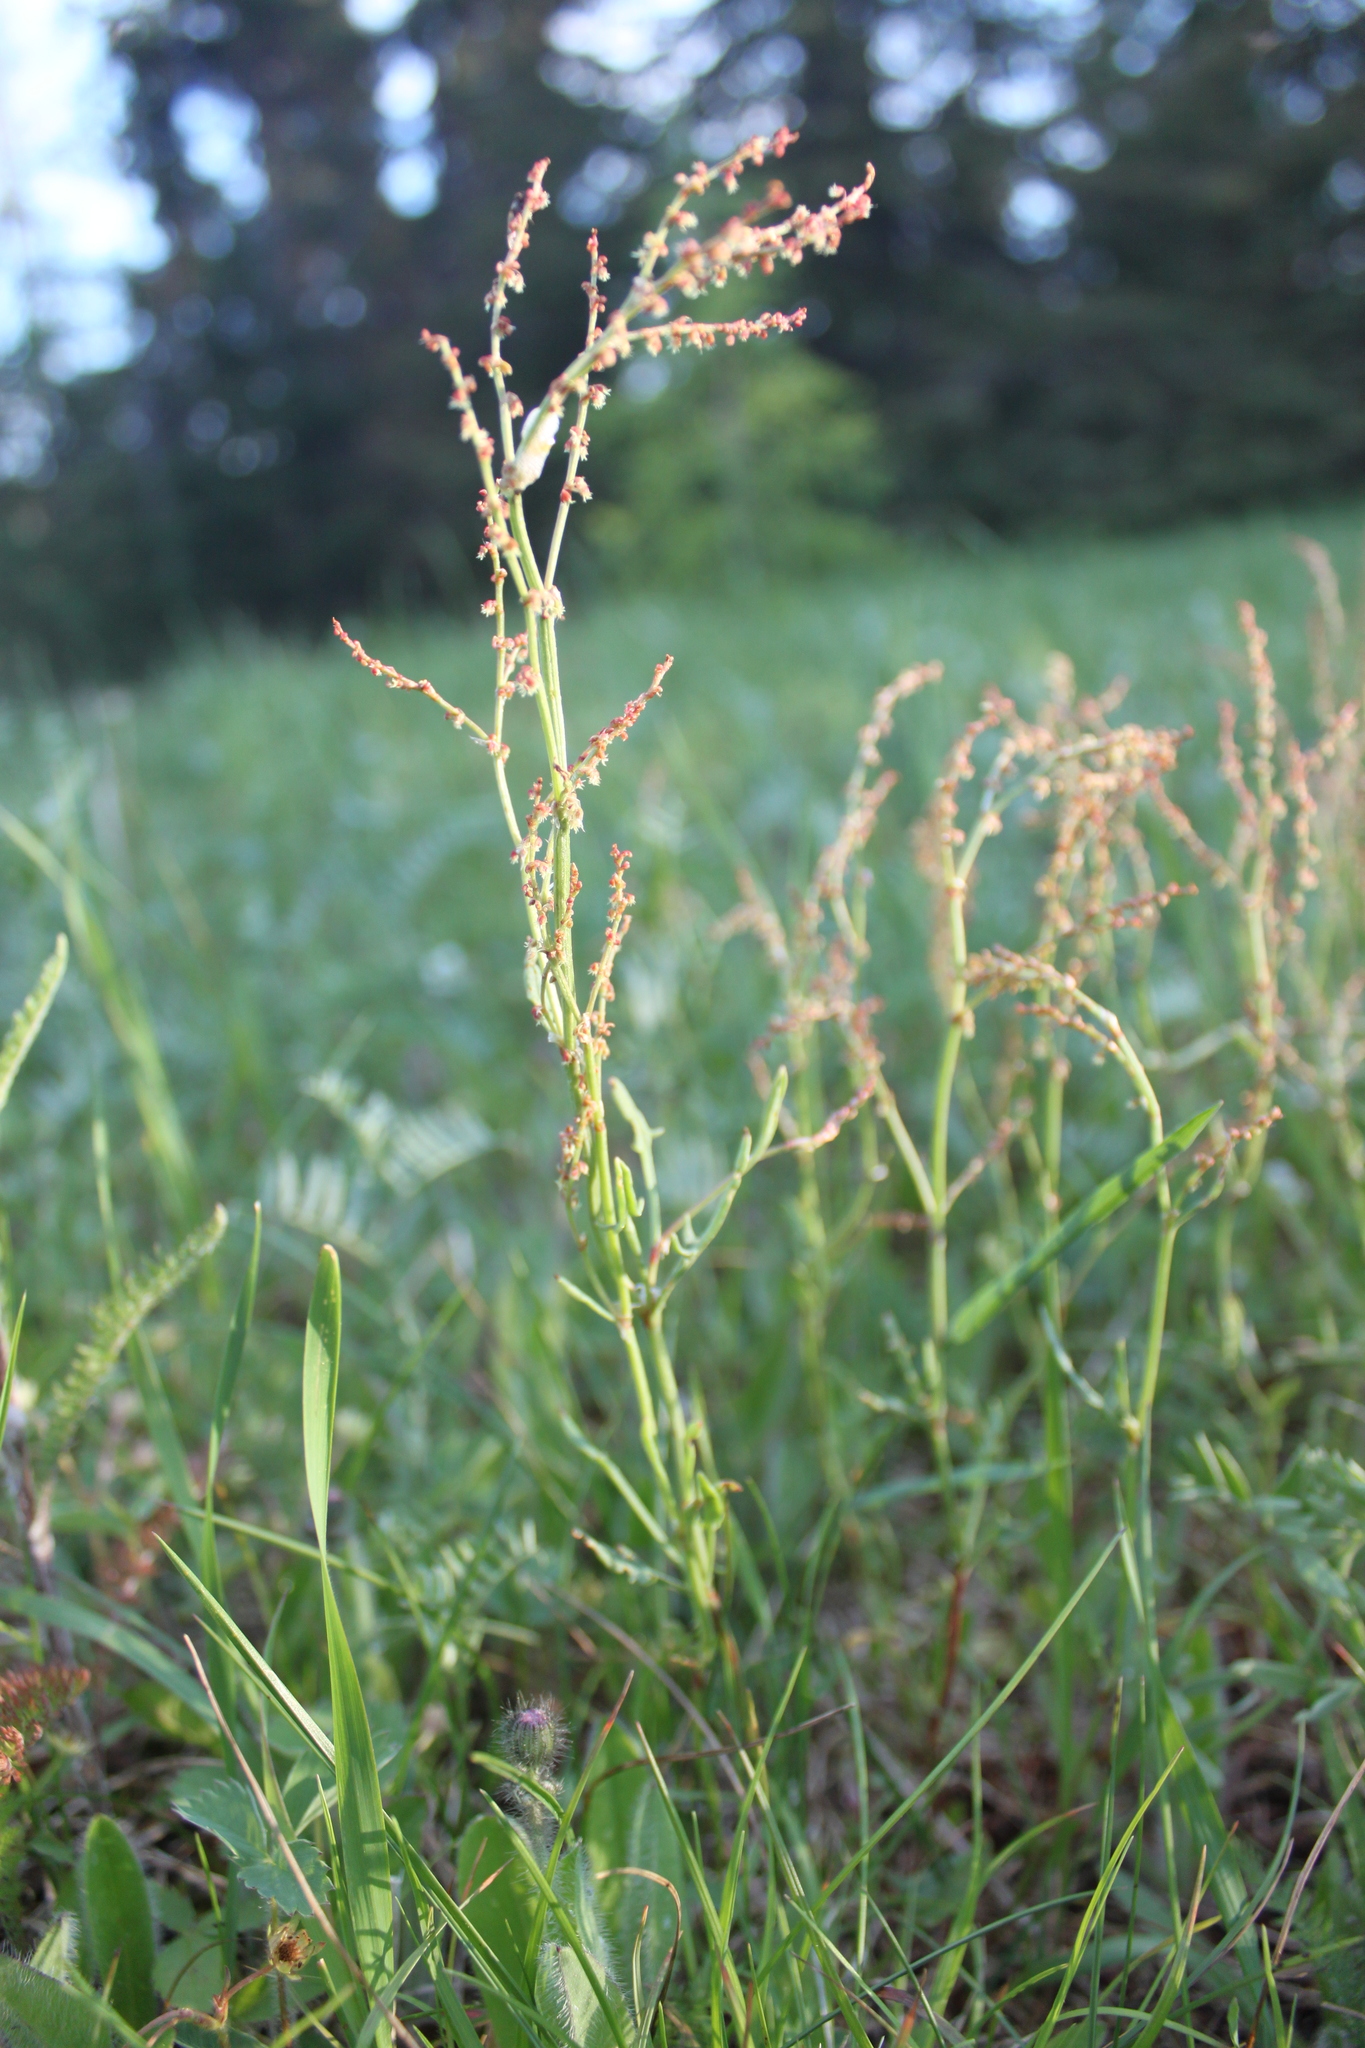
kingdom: Plantae
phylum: Tracheophyta
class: Magnoliopsida
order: Caryophyllales
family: Polygonaceae
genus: Rumex
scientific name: Rumex acetosella
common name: Common sheep sorrel
